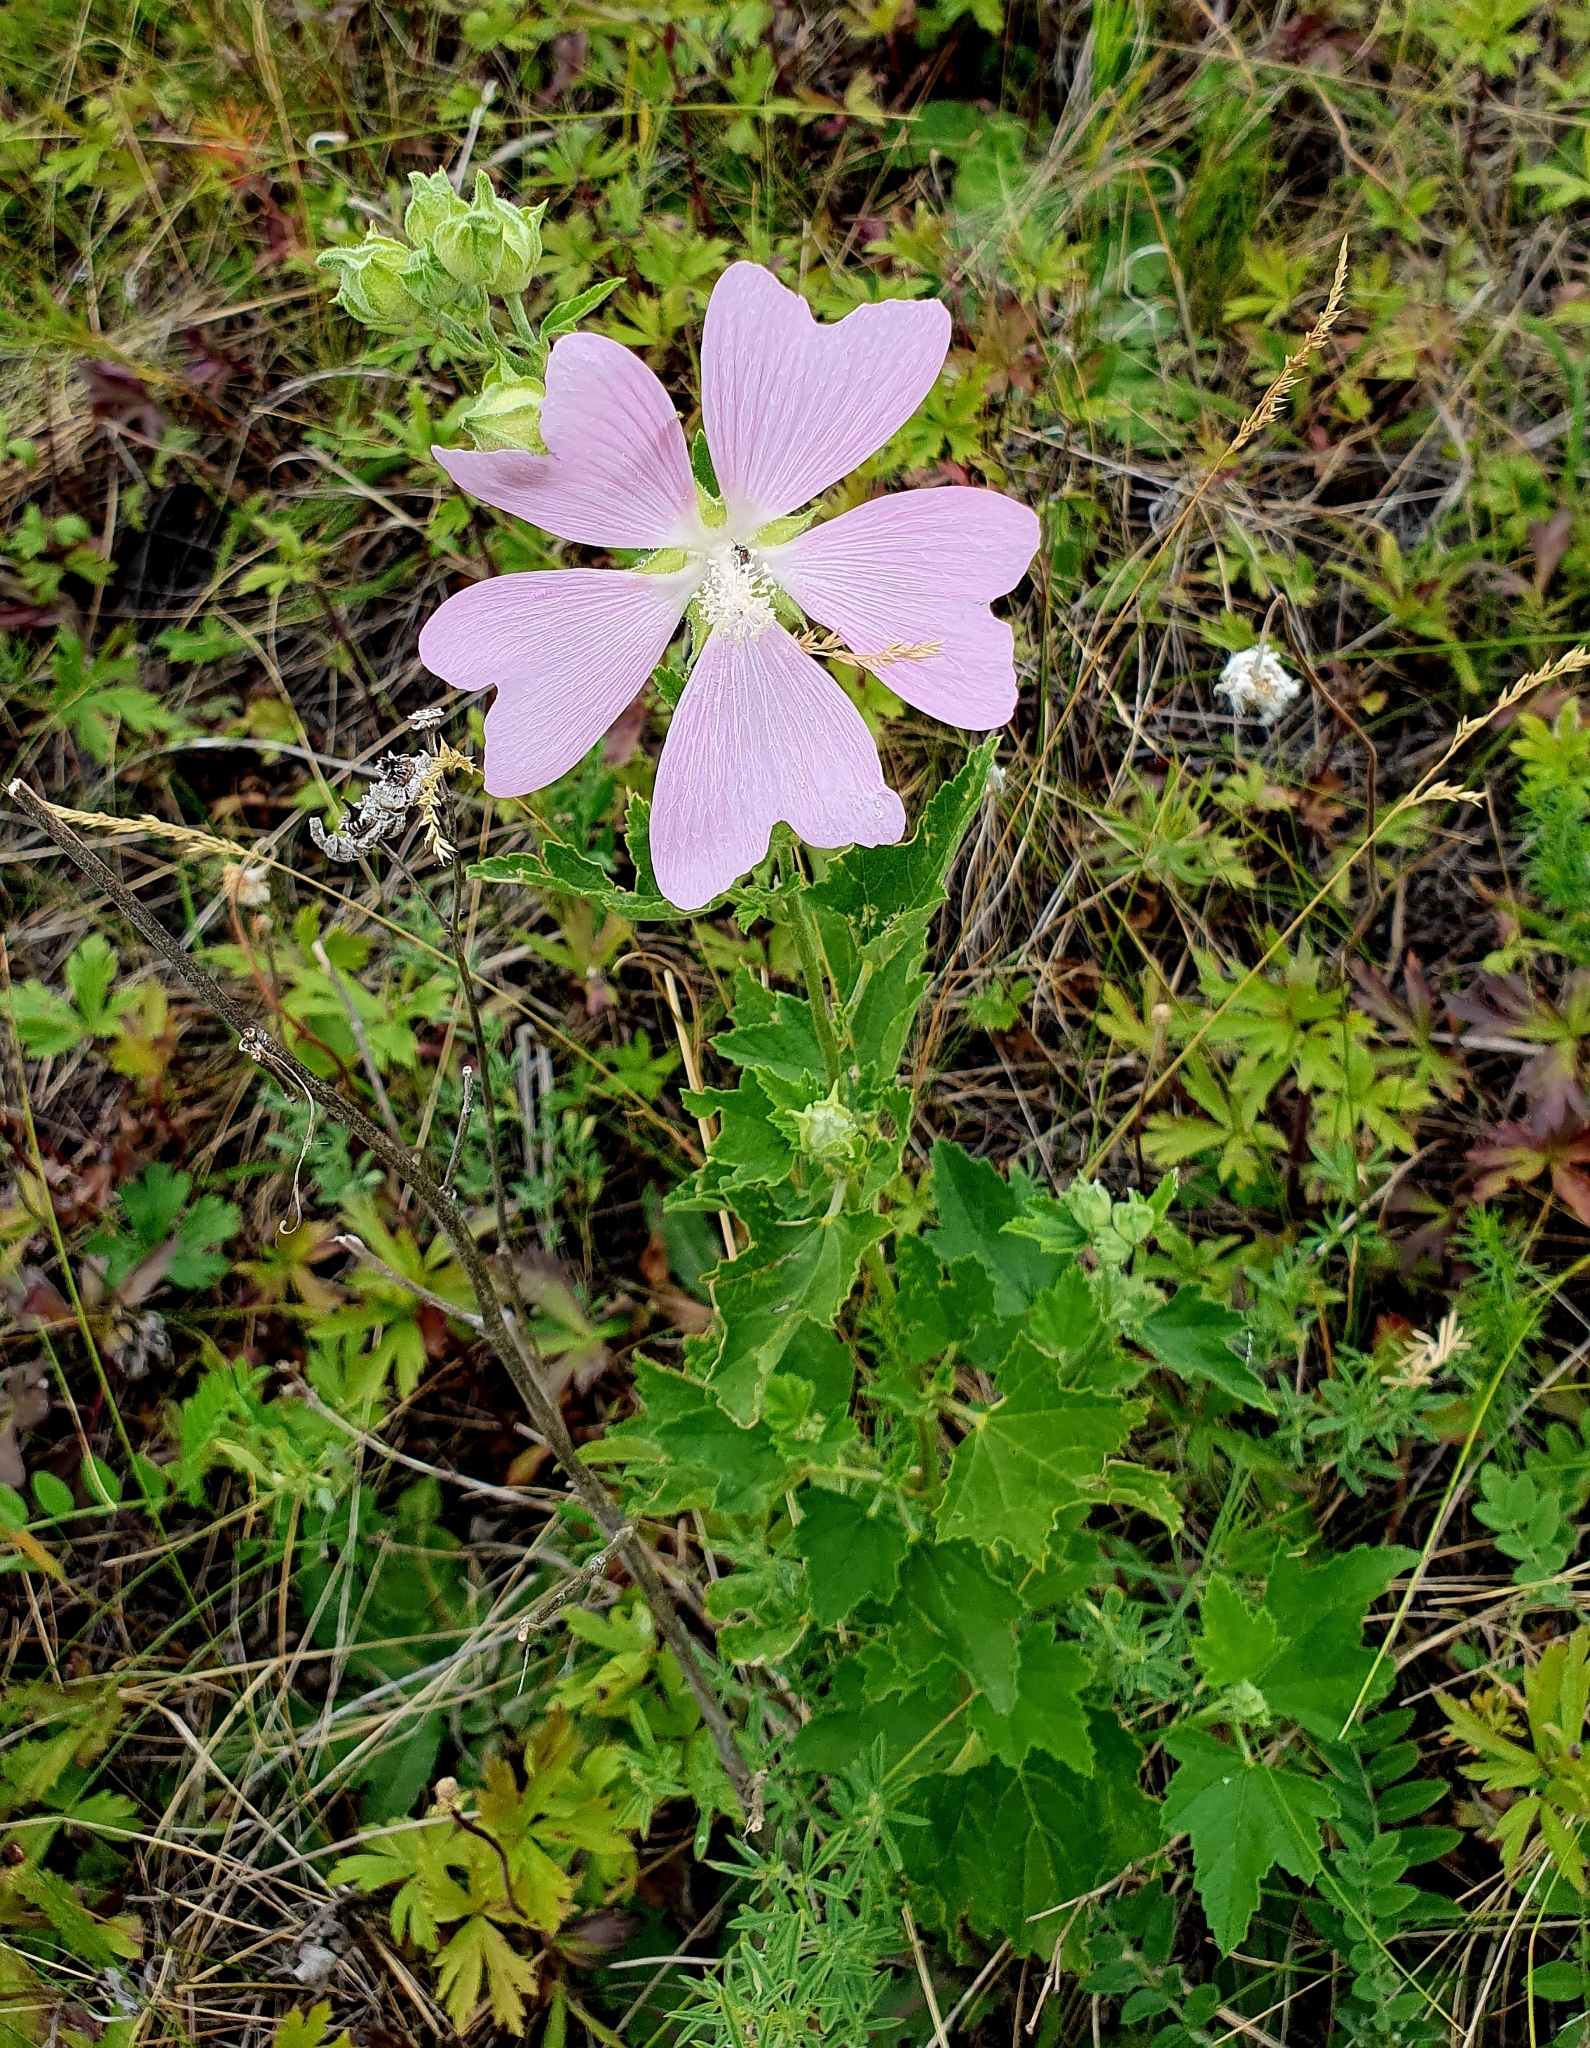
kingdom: Plantae
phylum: Tracheophyta
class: Magnoliopsida
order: Malvales
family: Malvaceae
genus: Malva
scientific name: Malva thuringiaca
